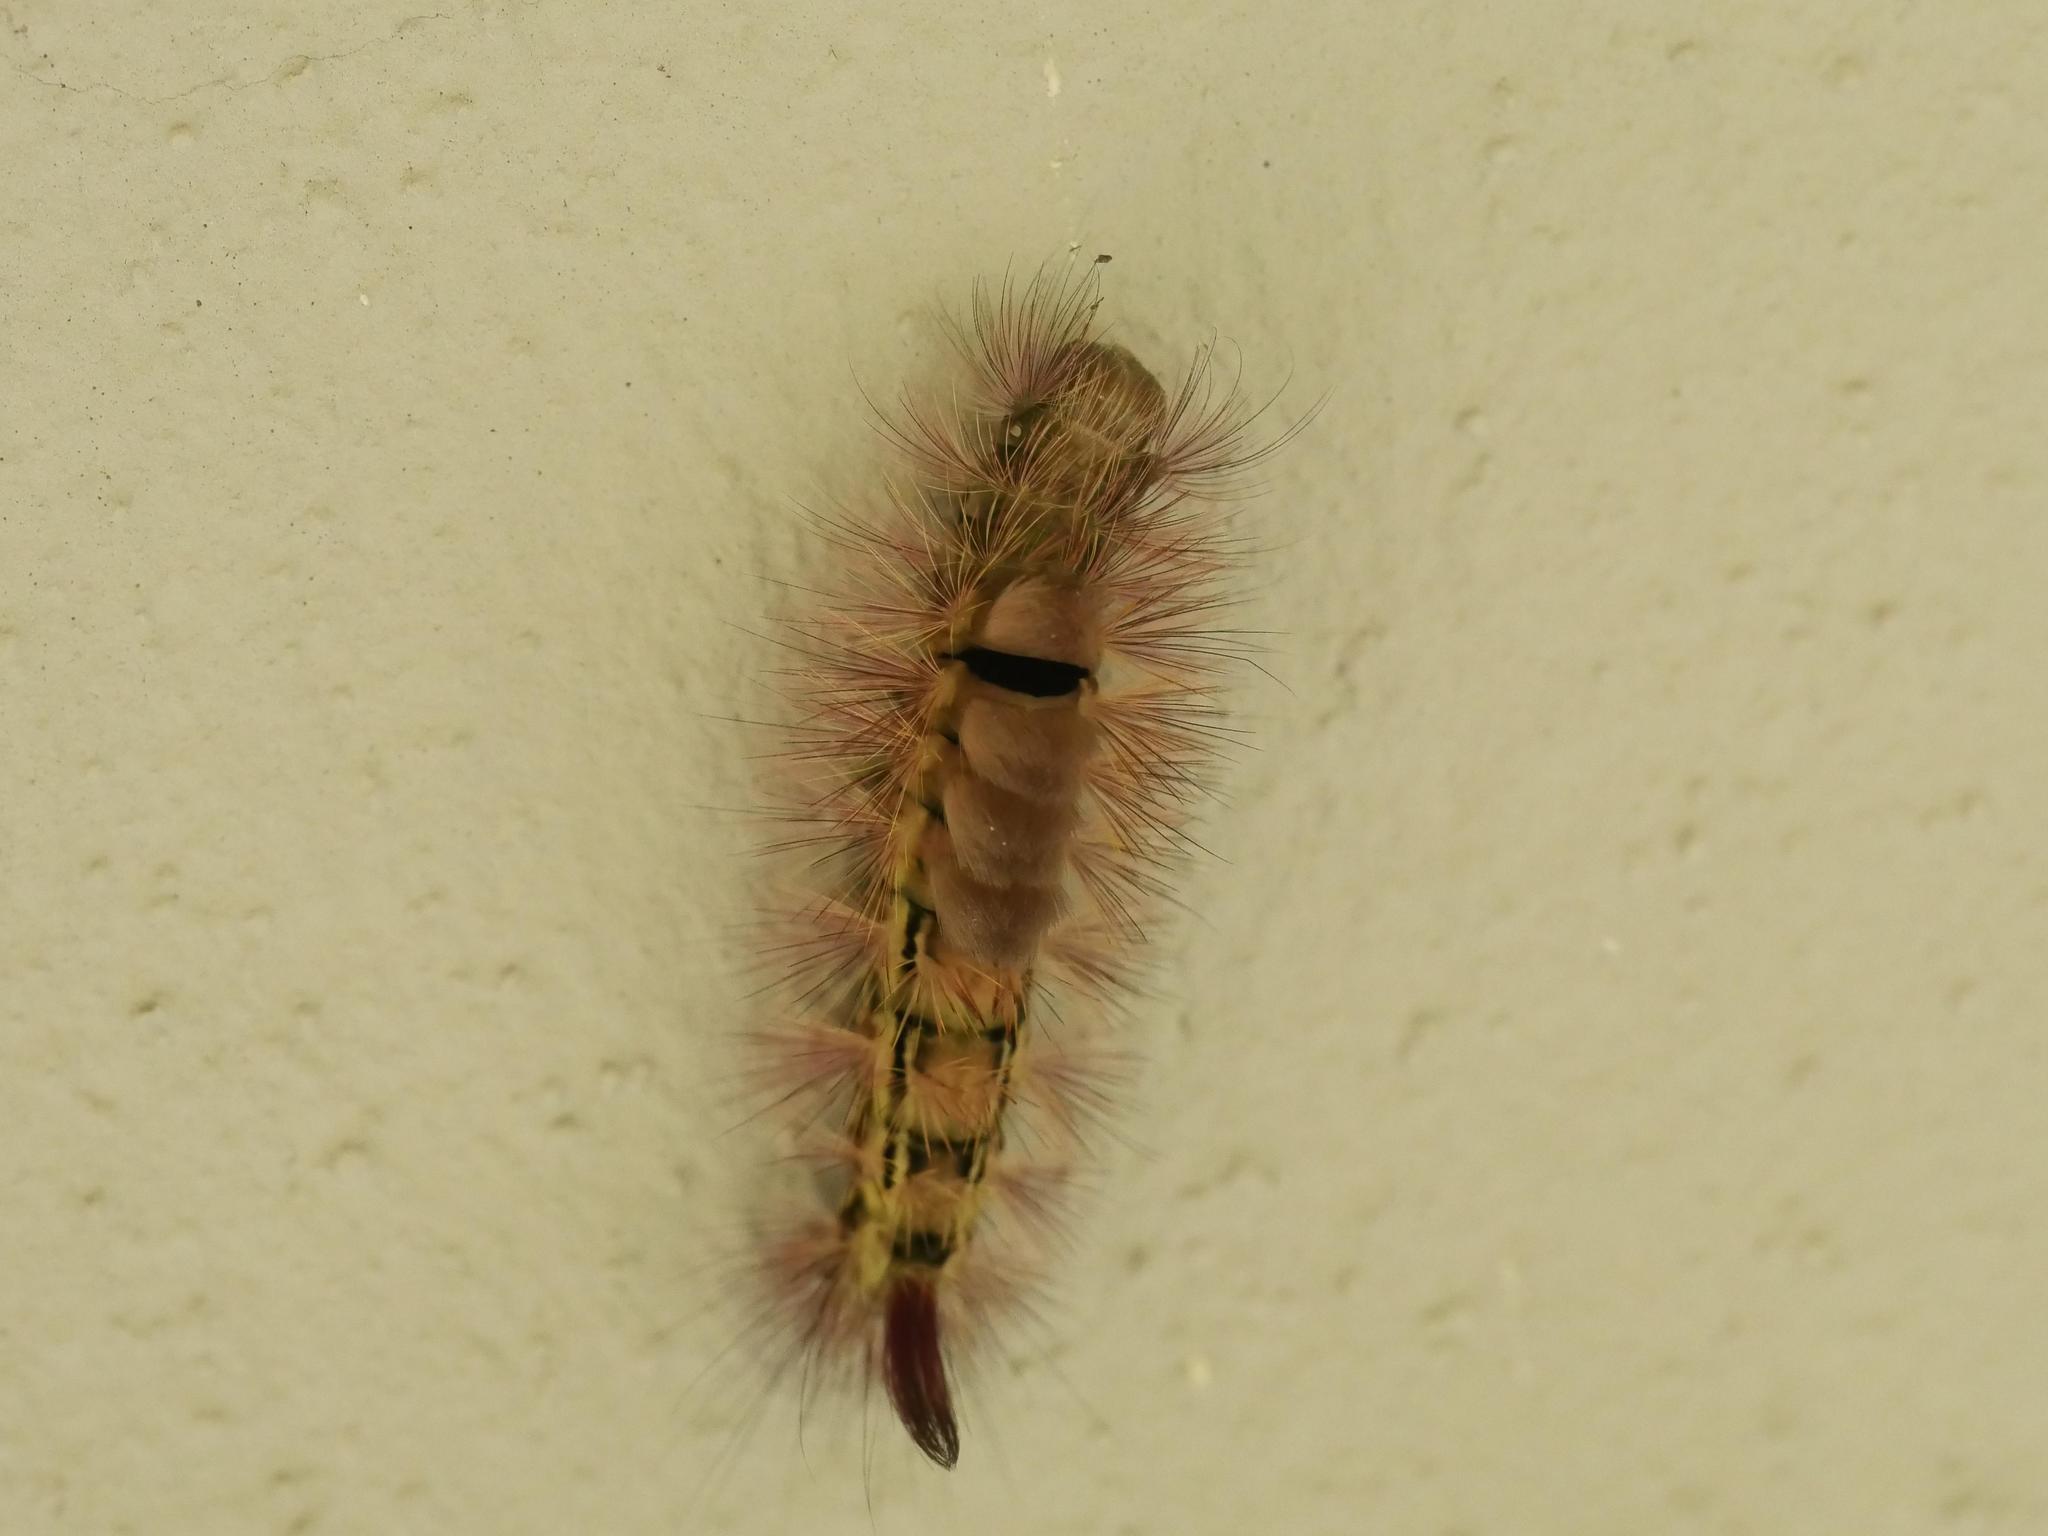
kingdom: Animalia
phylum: Arthropoda
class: Insecta
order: Lepidoptera
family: Erebidae
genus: Calliteara
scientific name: Calliteara pudibunda
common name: Pale tussock
